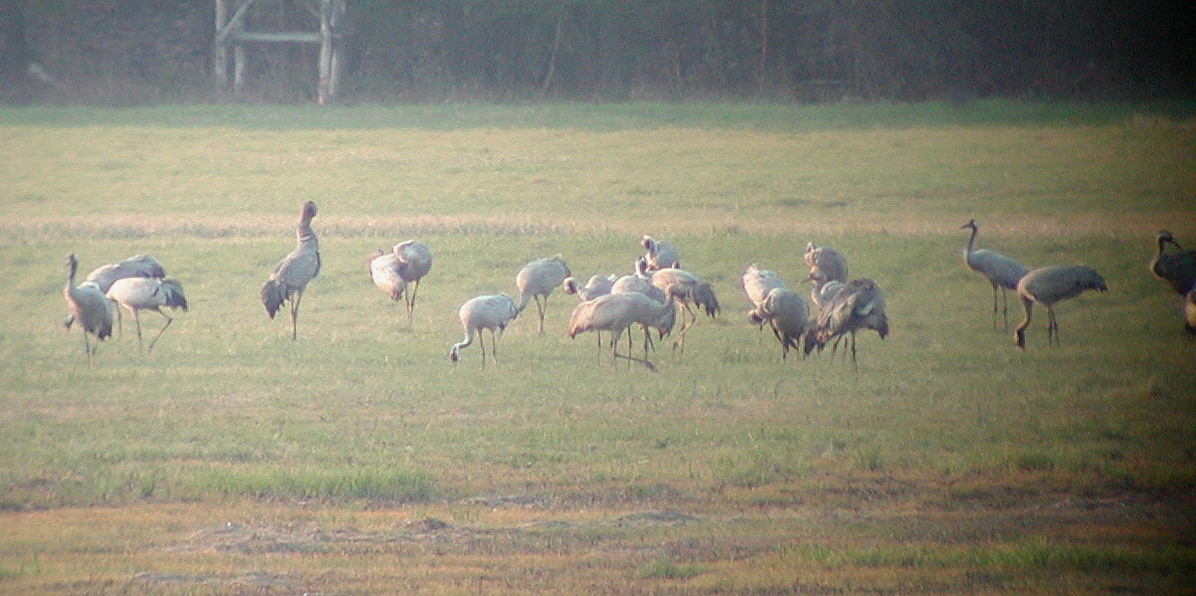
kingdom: Animalia
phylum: Chordata
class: Aves
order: Gruiformes
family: Gruidae
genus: Grus
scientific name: Grus grus
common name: Common crane
